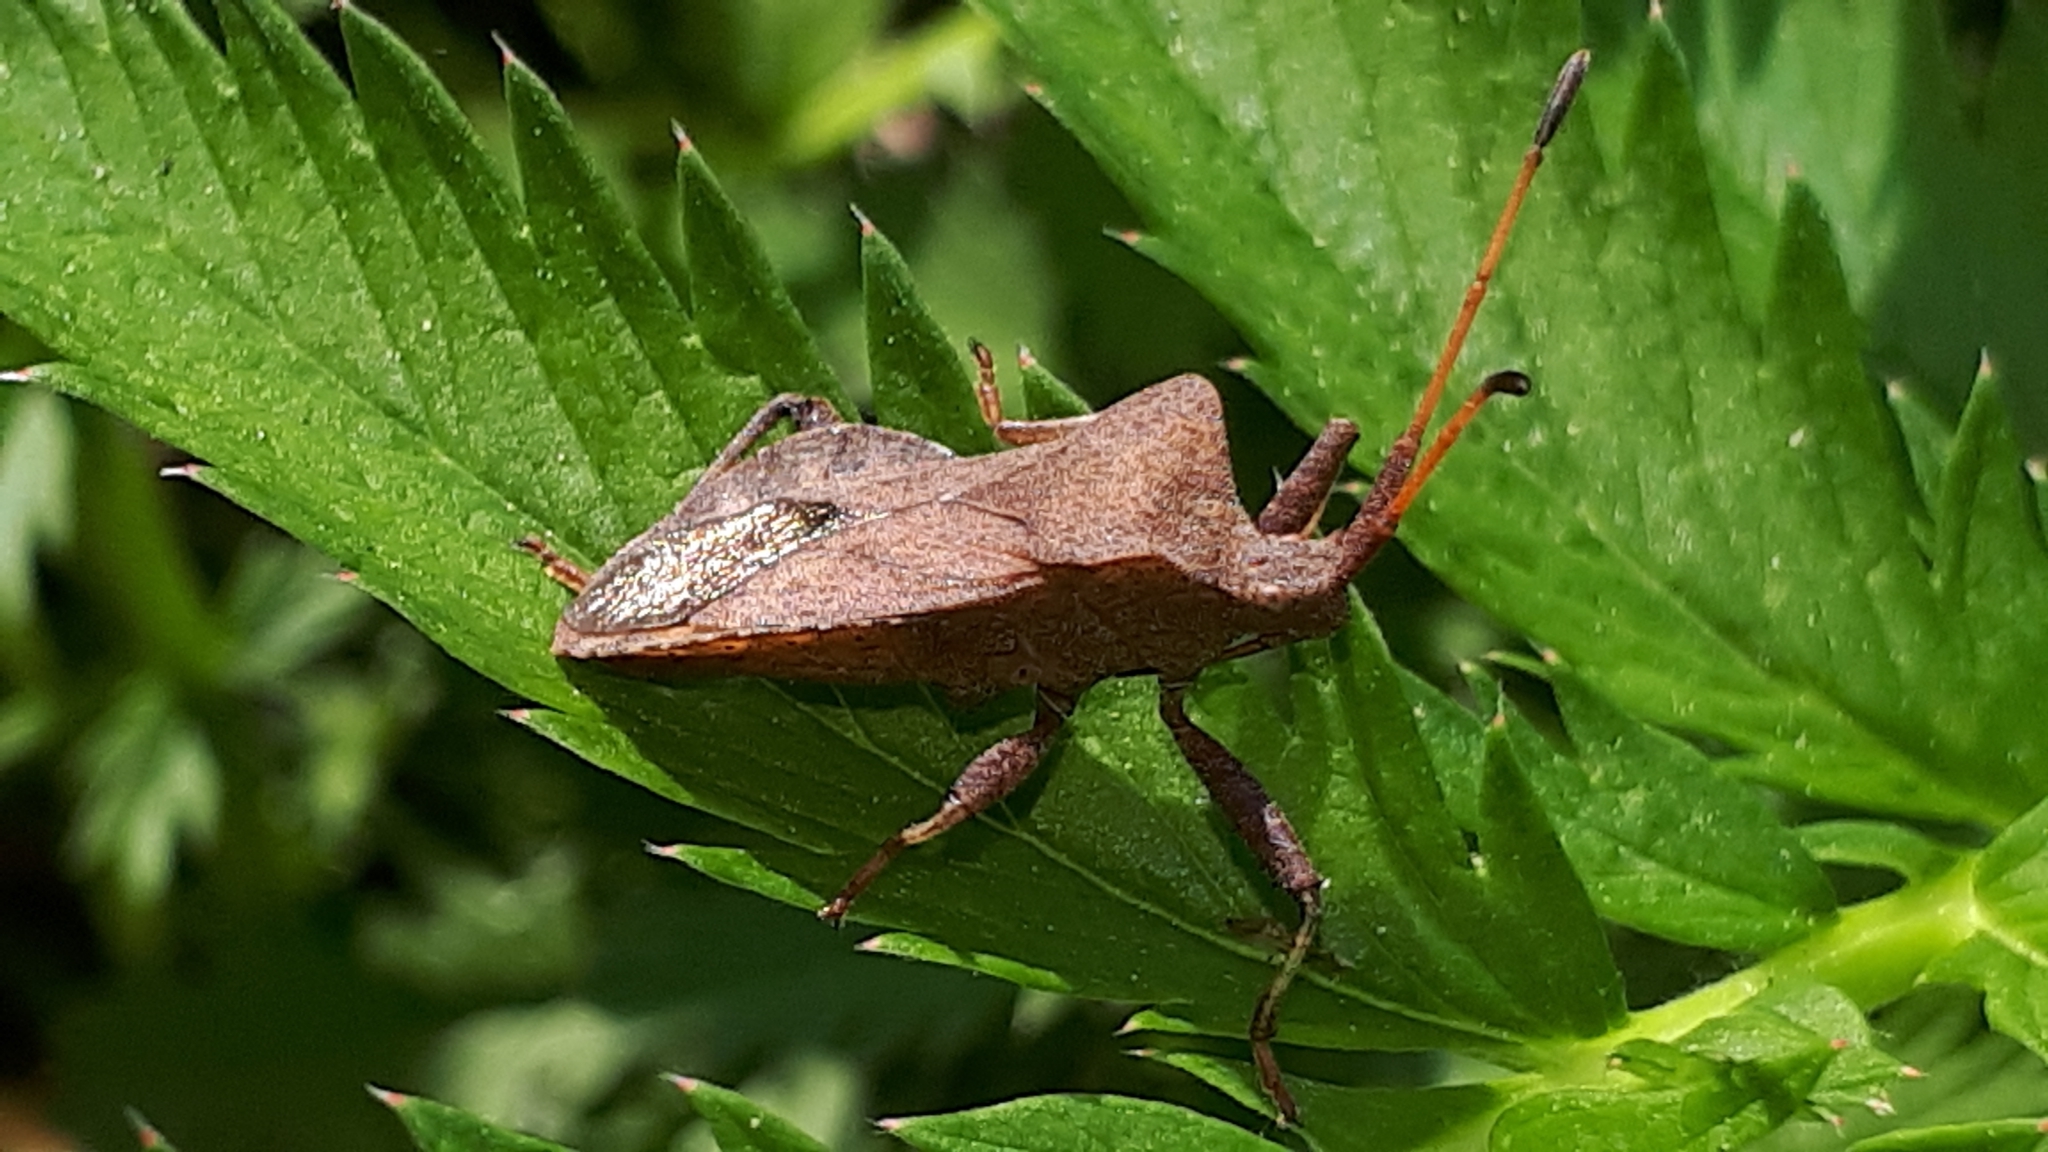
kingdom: Animalia
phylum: Arthropoda
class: Insecta
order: Hemiptera
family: Coreidae
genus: Coreus
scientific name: Coreus marginatus
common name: Dock bug
